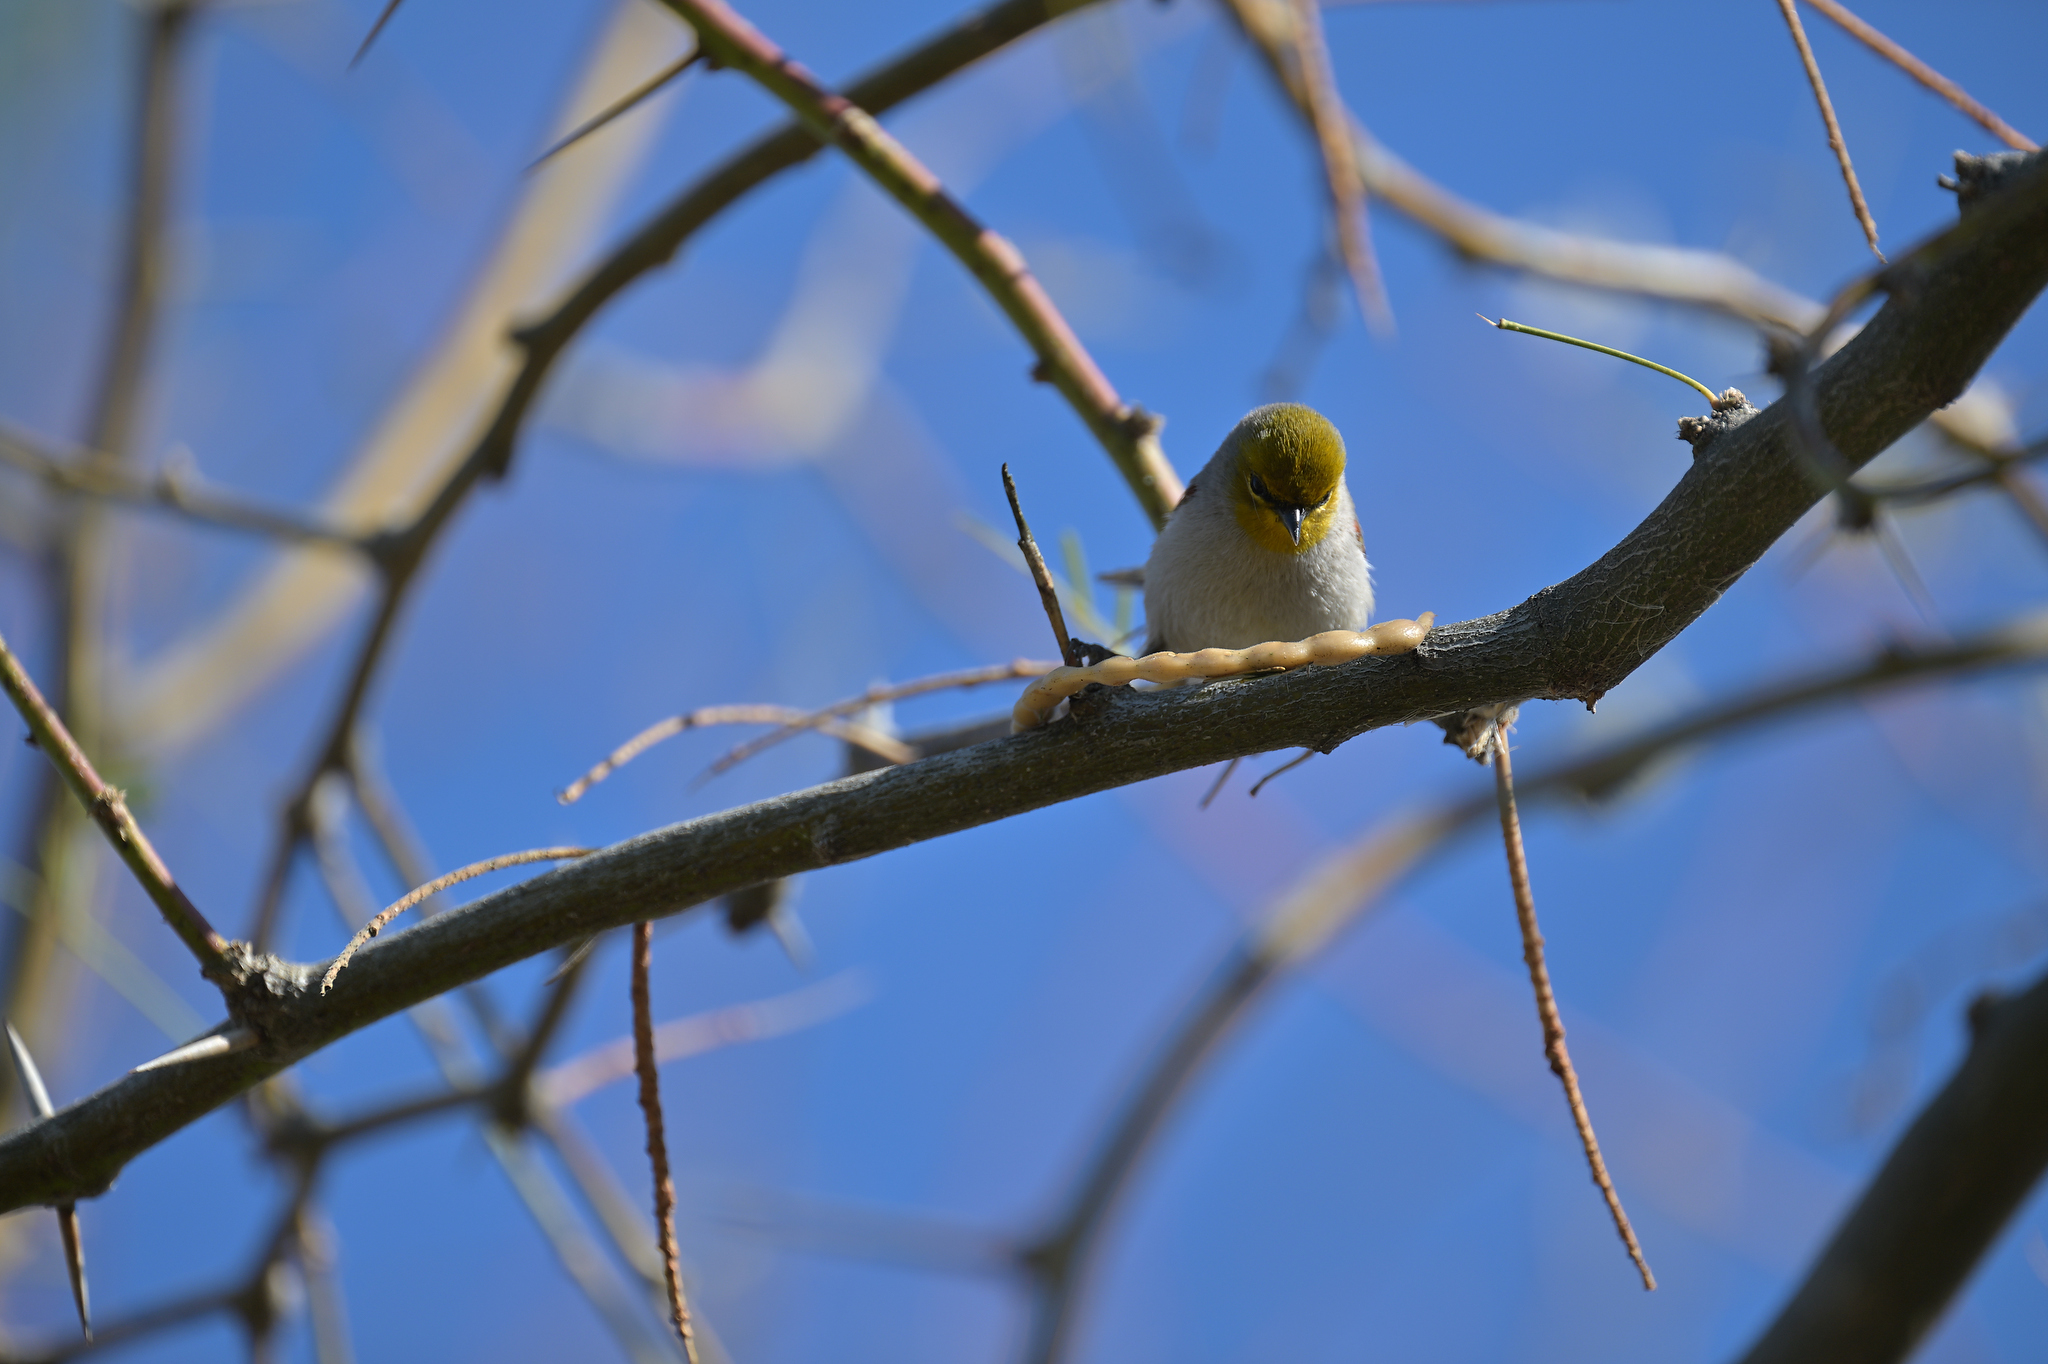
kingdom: Animalia
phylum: Chordata
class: Aves
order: Passeriformes
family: Remizidae
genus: Auriparus
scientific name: Auriparus flaviceps
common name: Verdin
